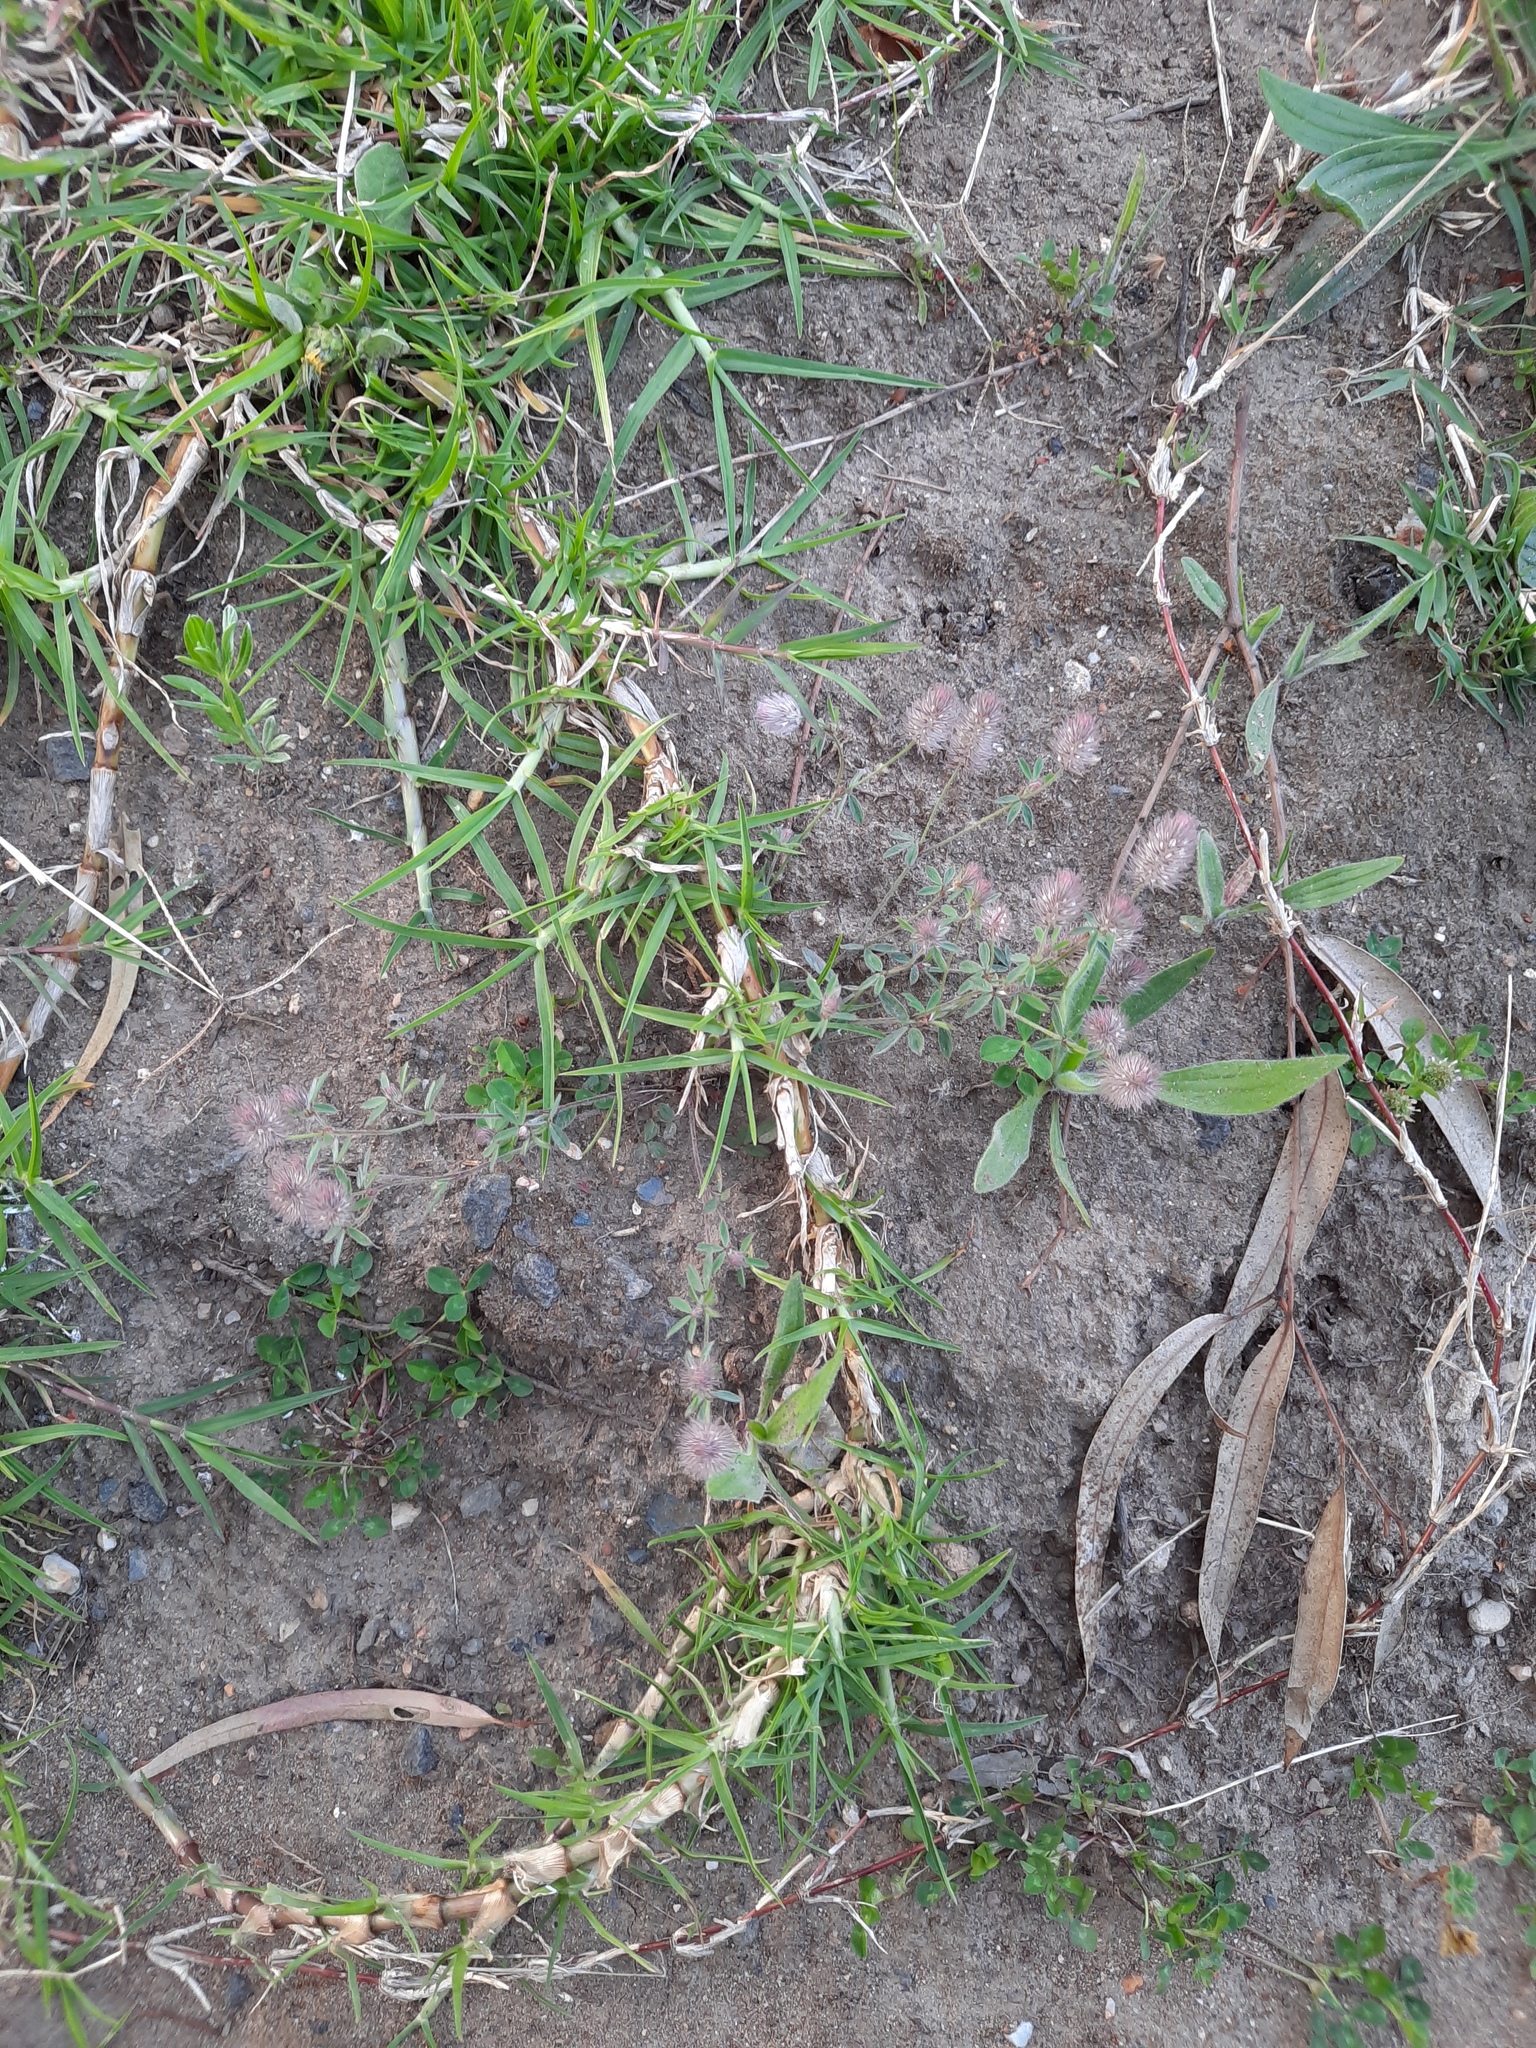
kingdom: Plantae
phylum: Tracheophyta
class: Magnoliopsida
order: Fabales
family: Fabaceae
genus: Trifolium
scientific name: Trifolium arvense
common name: Hare's-foot clover
